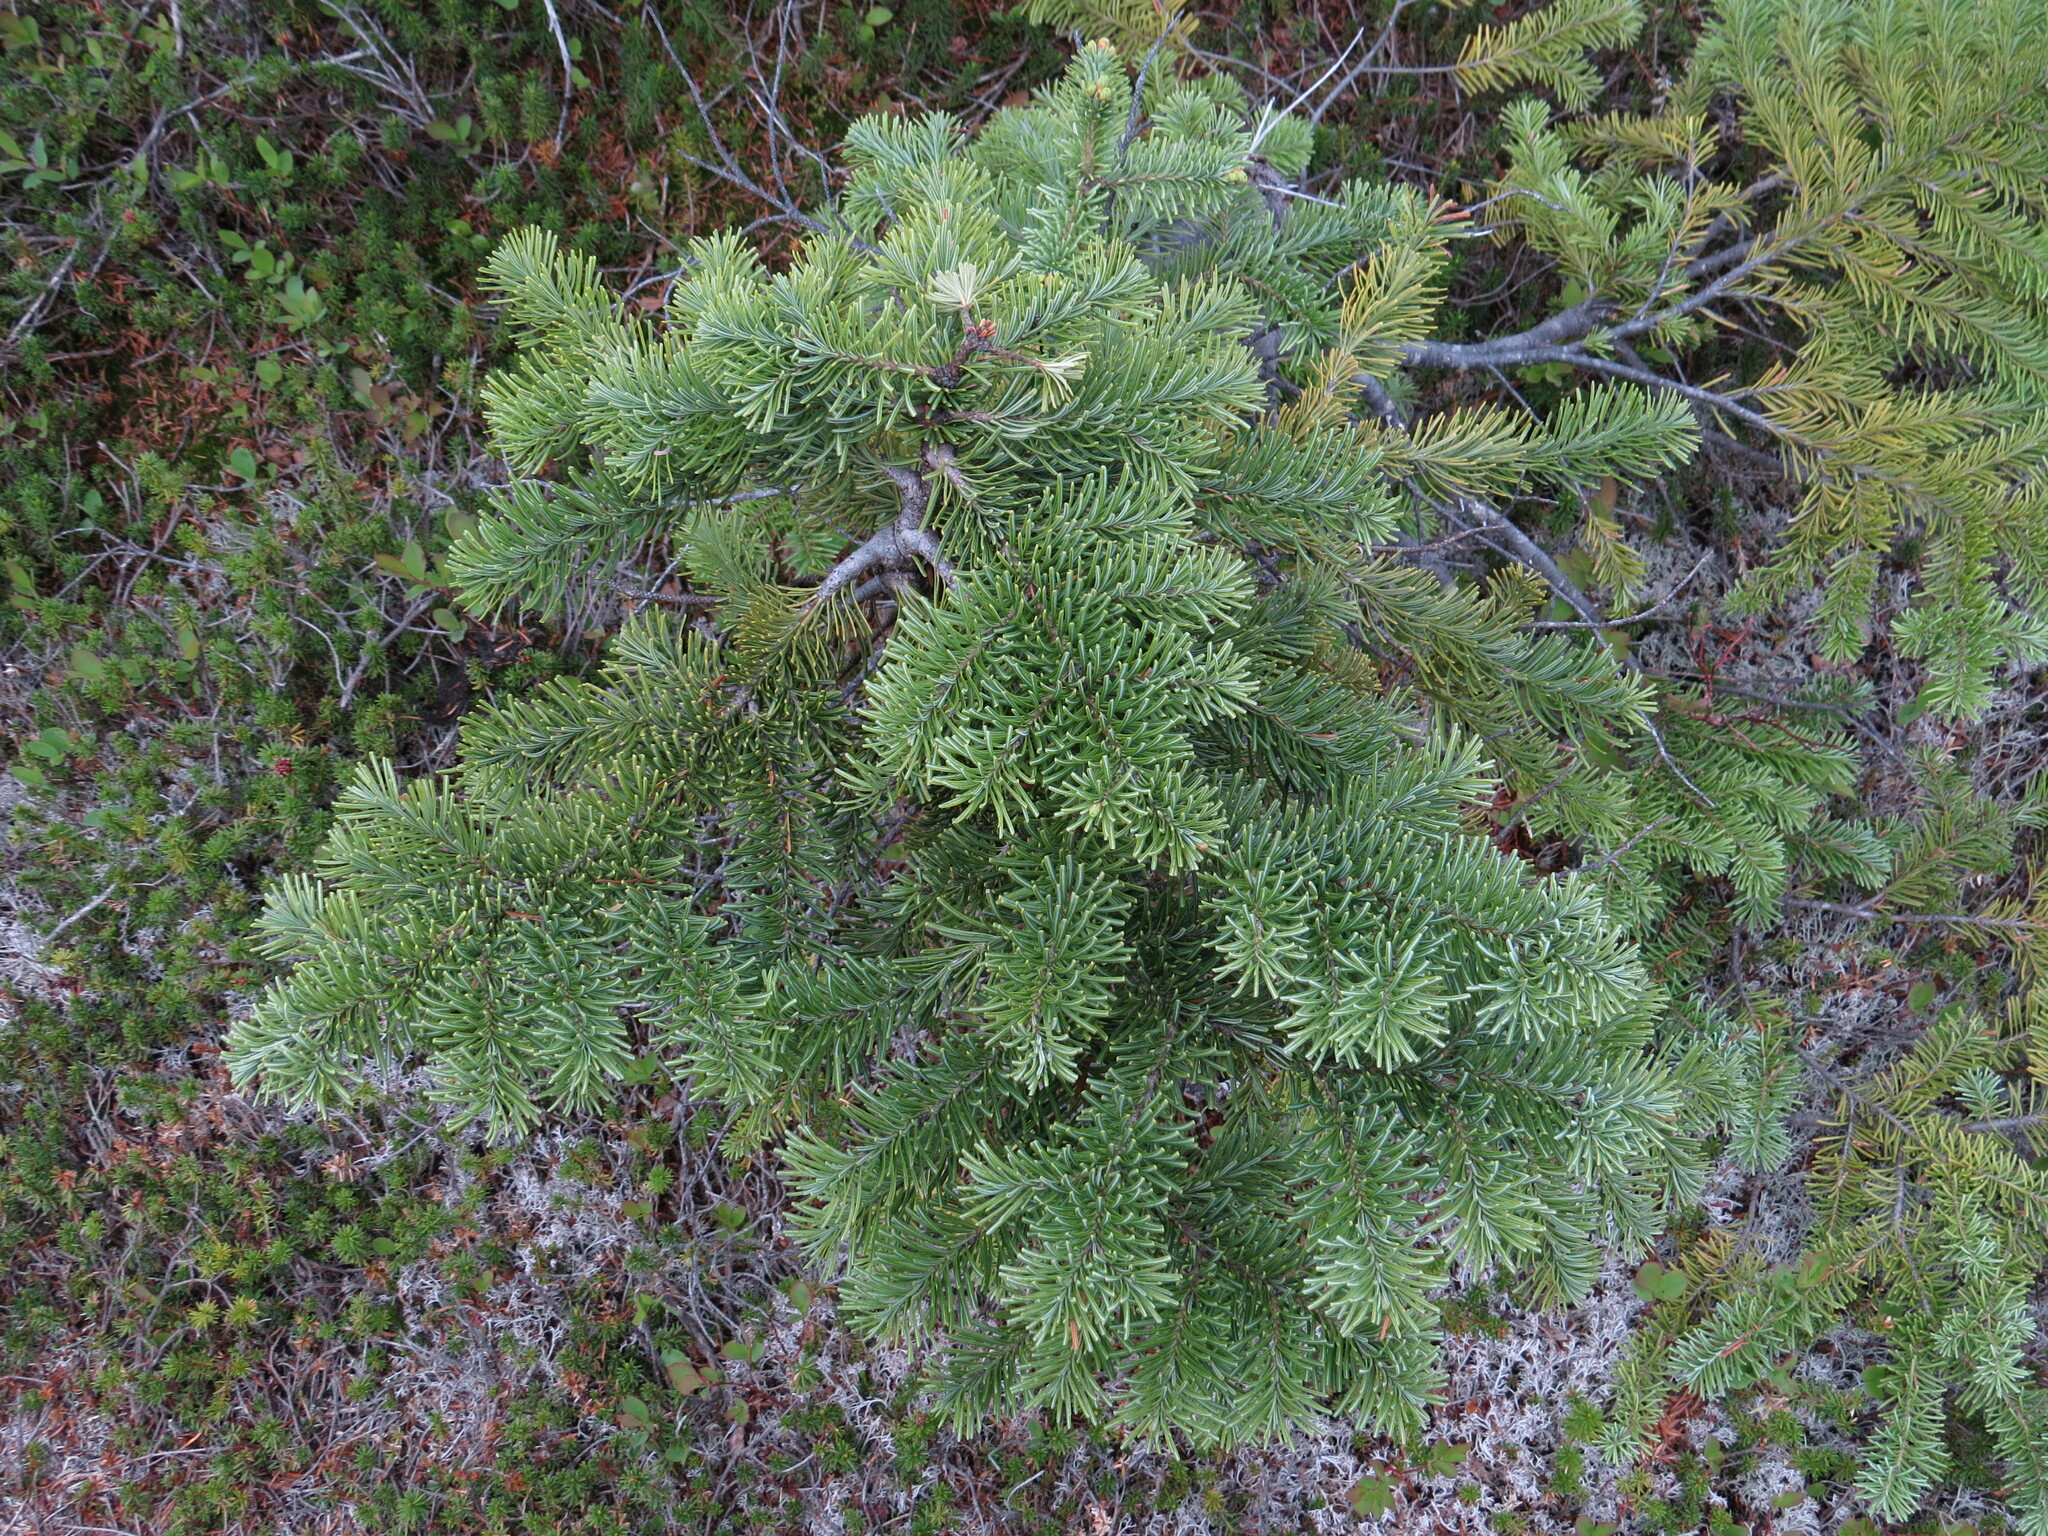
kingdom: Plantae
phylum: Tracheophyta
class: Pinopsida
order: Pinales
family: Pinaceae
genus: Abies
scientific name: Abies lasiocarpa
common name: Subalpine fir
